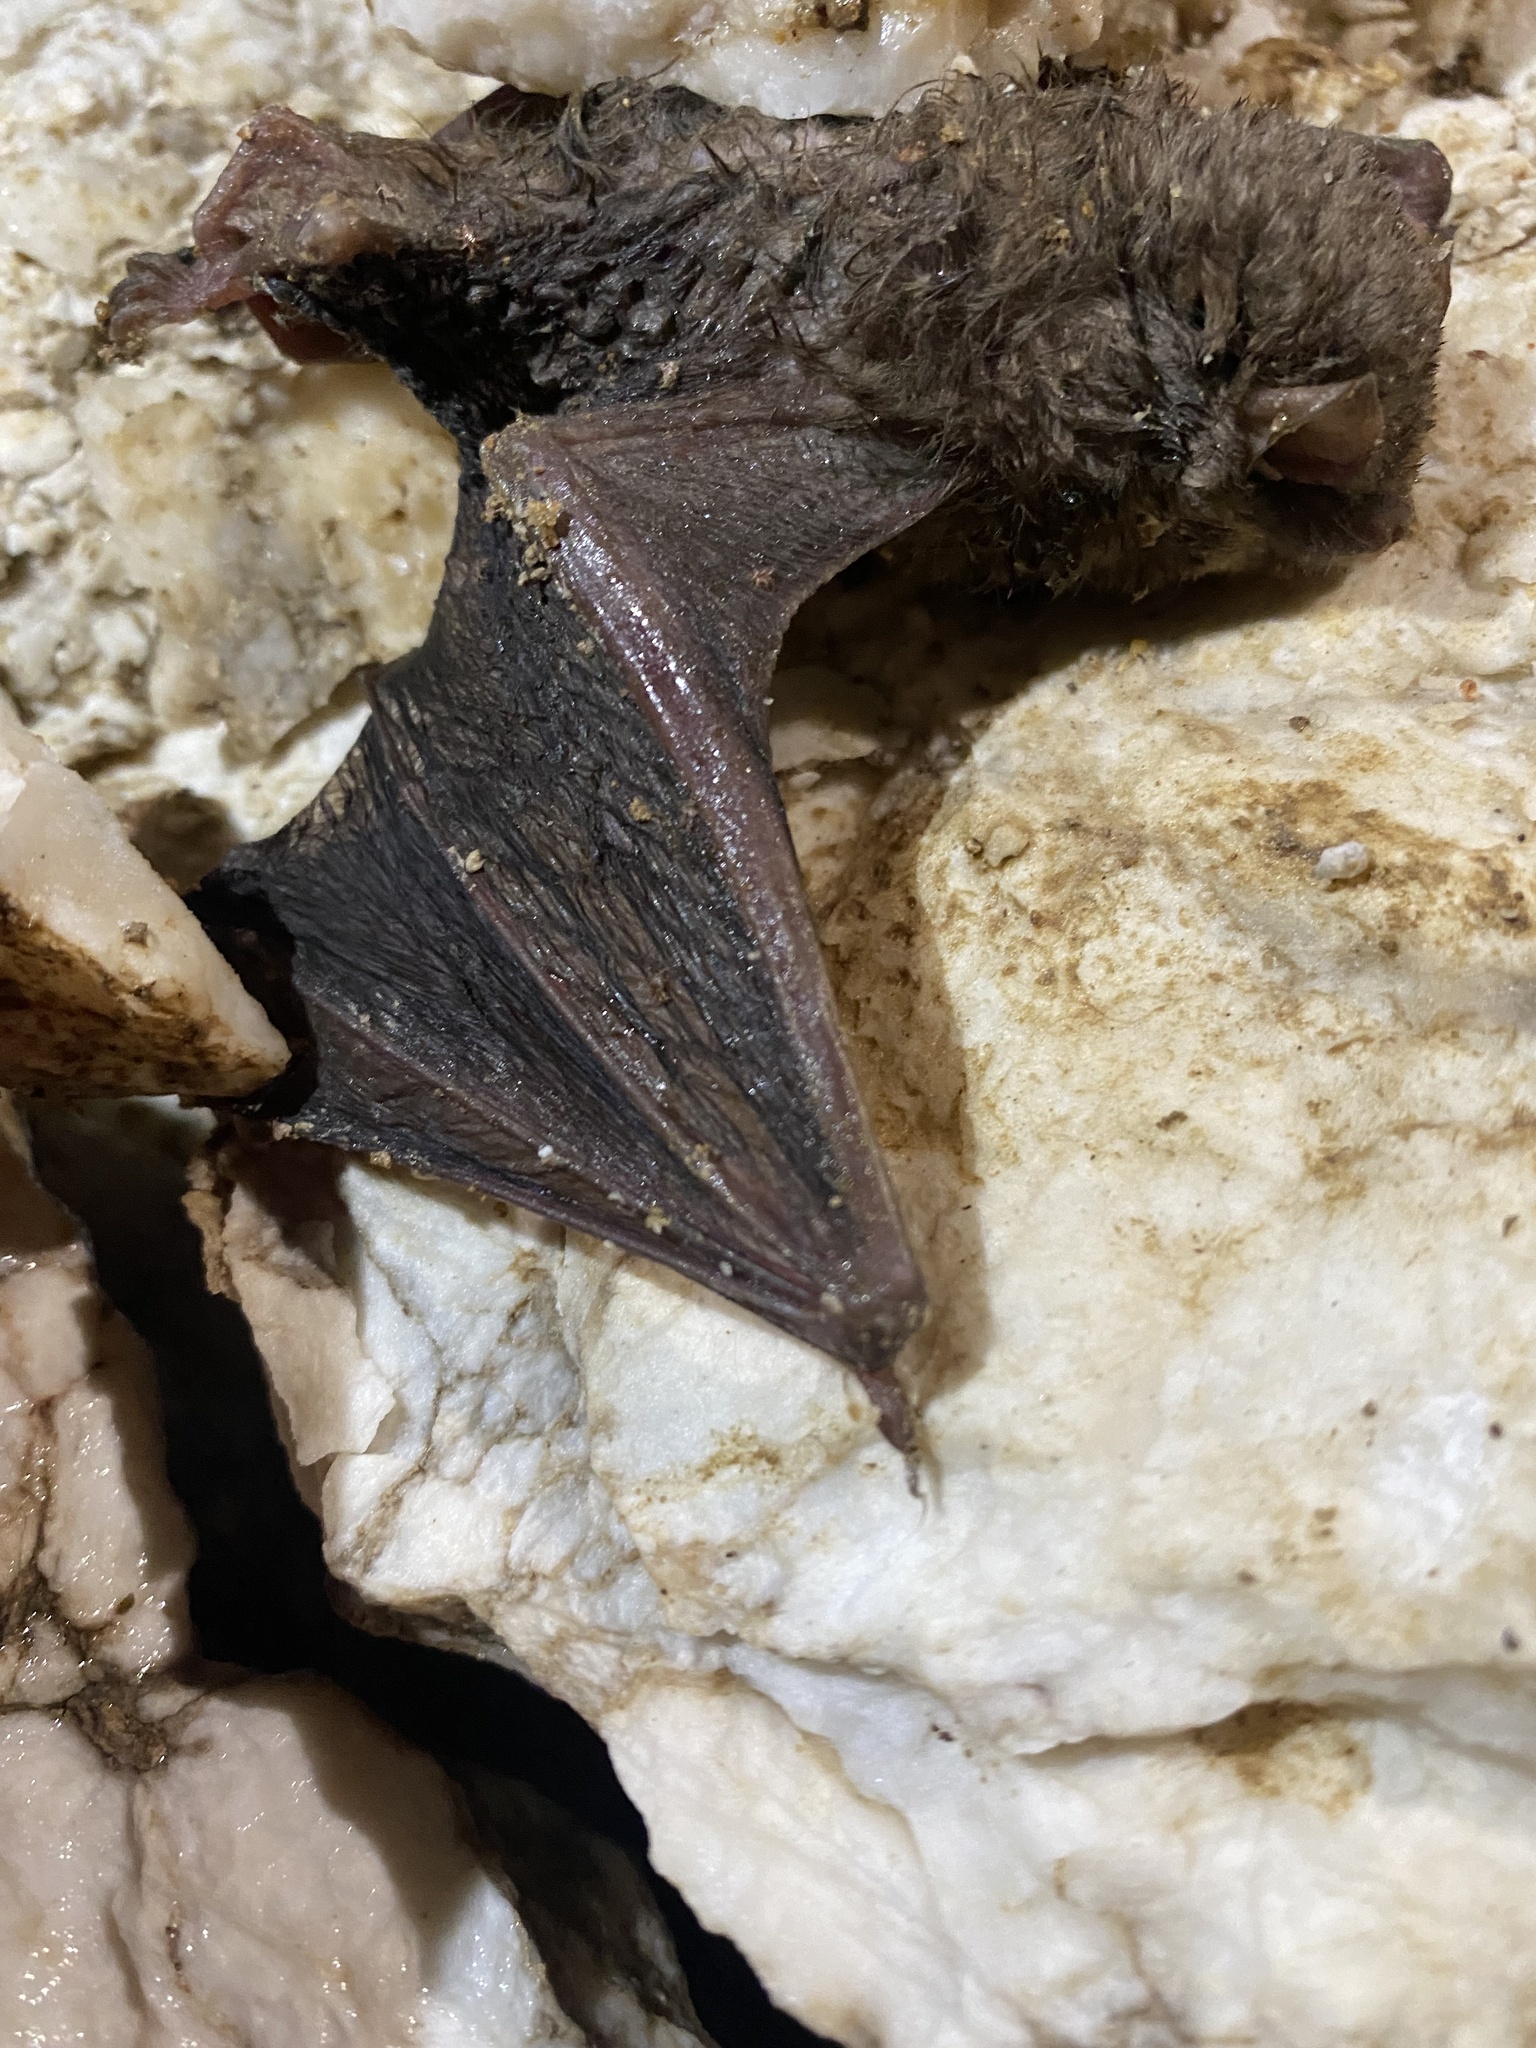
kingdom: Animalia
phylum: Chordata
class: Mammalia
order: Chiroptera
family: Miniopteridae
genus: Miniopterus
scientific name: Miniopterus schreibersii
